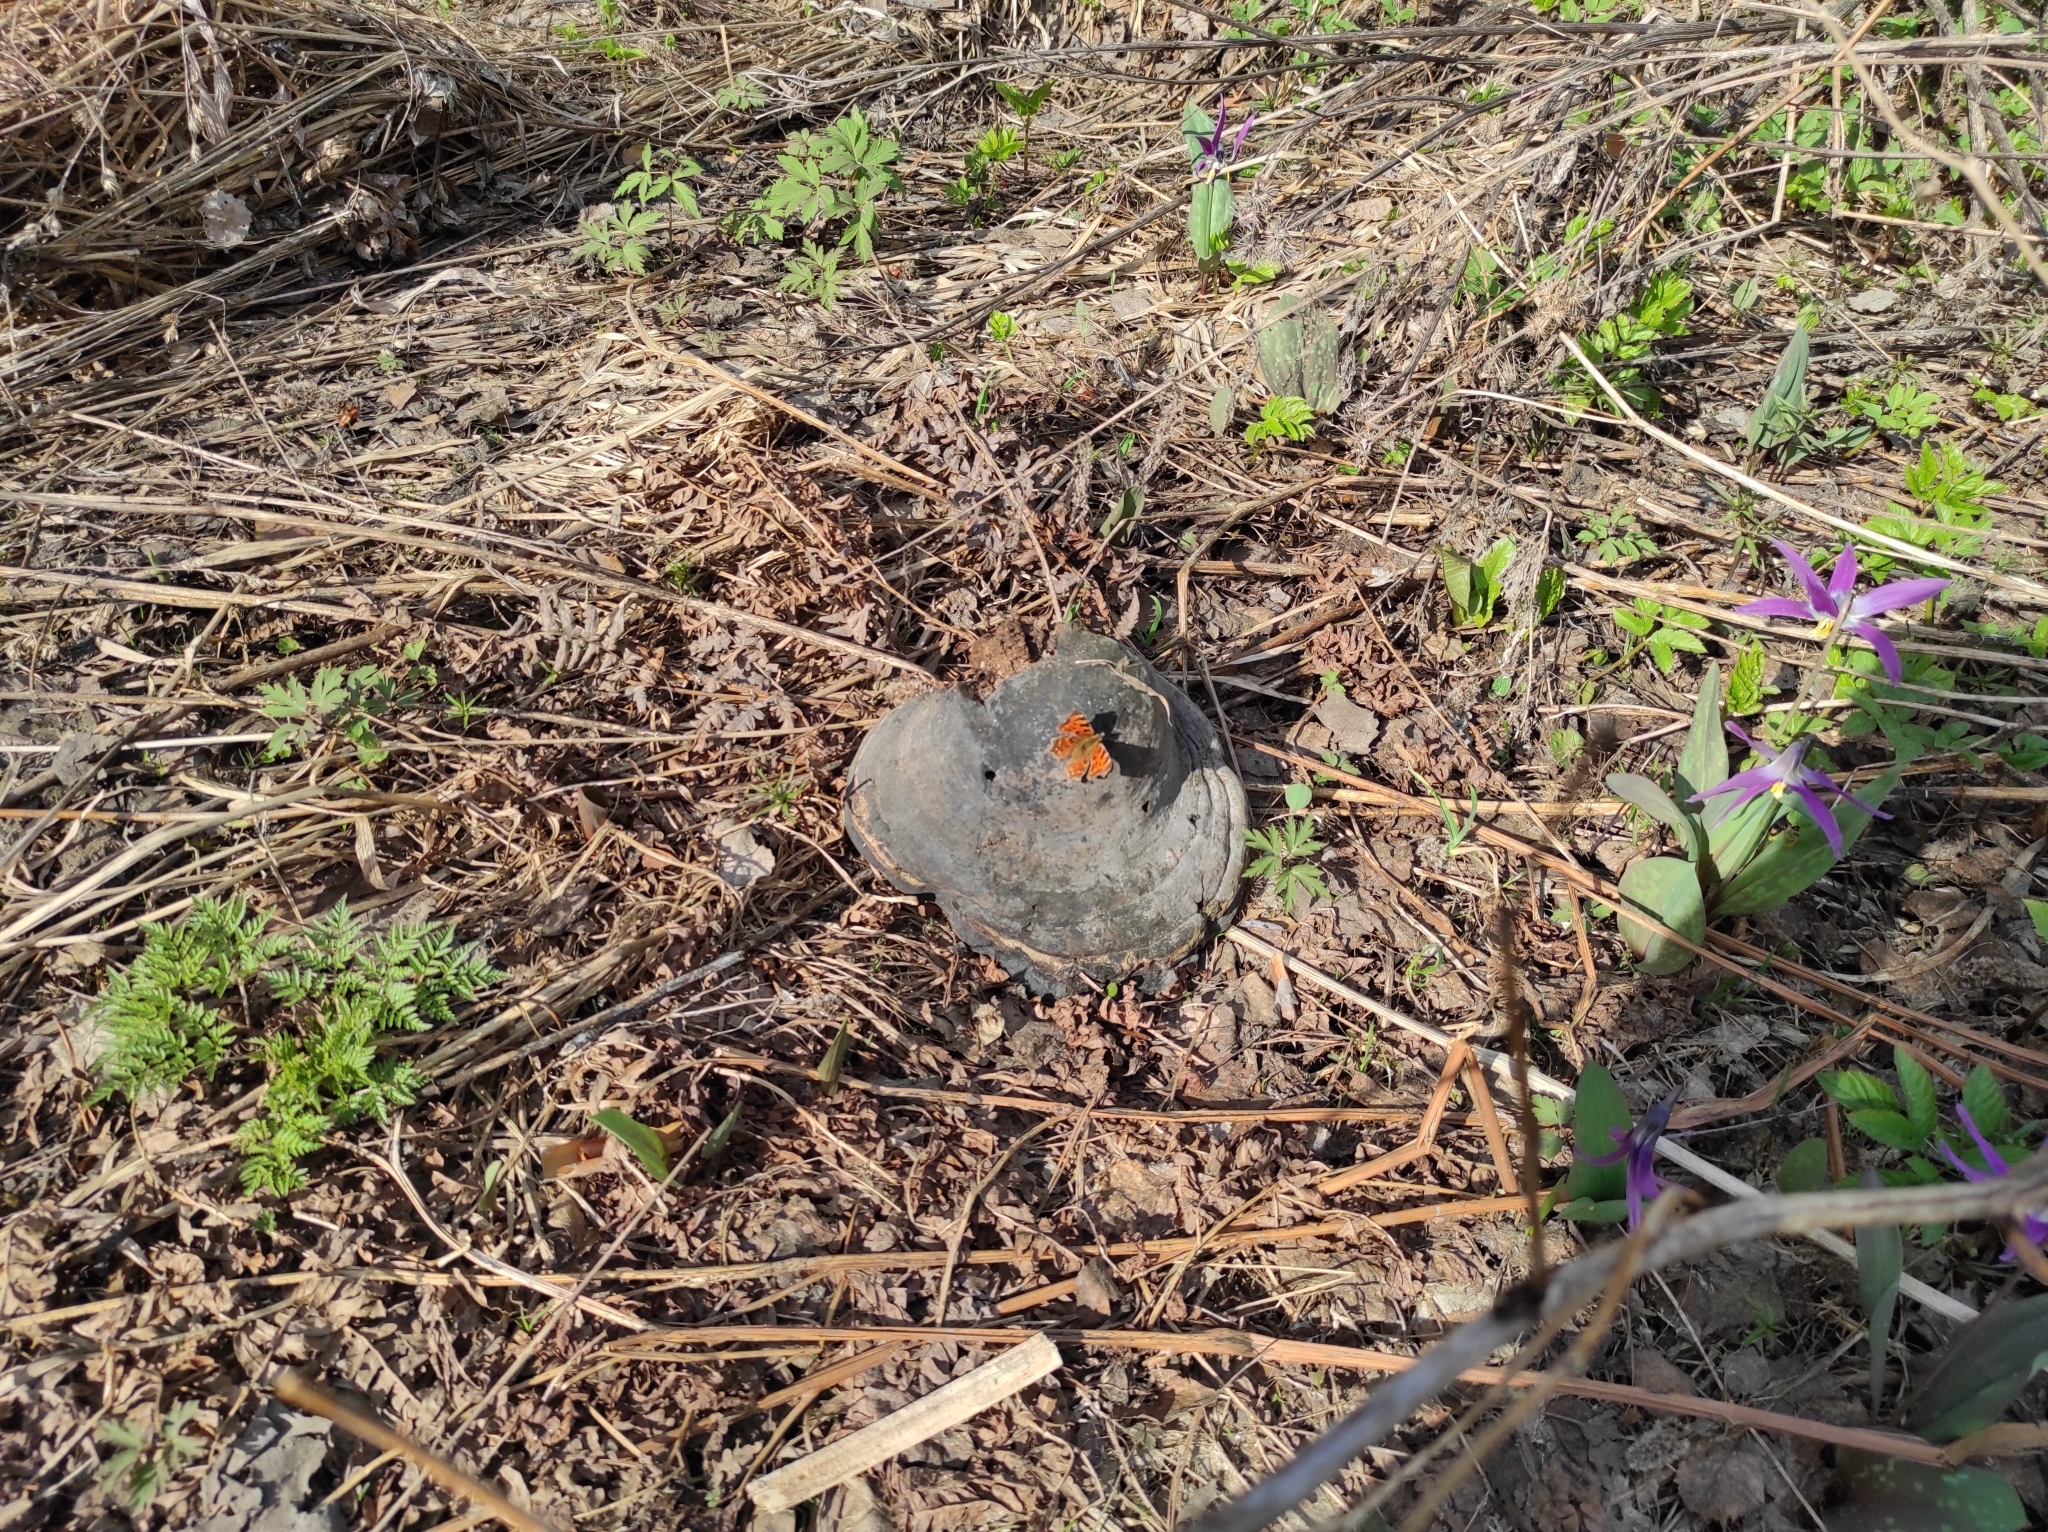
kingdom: Plantae
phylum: Tracheophyta
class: Liliopsida
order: Liliales
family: Liliaceae
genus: Erythronium
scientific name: Erythronium sibiricum
